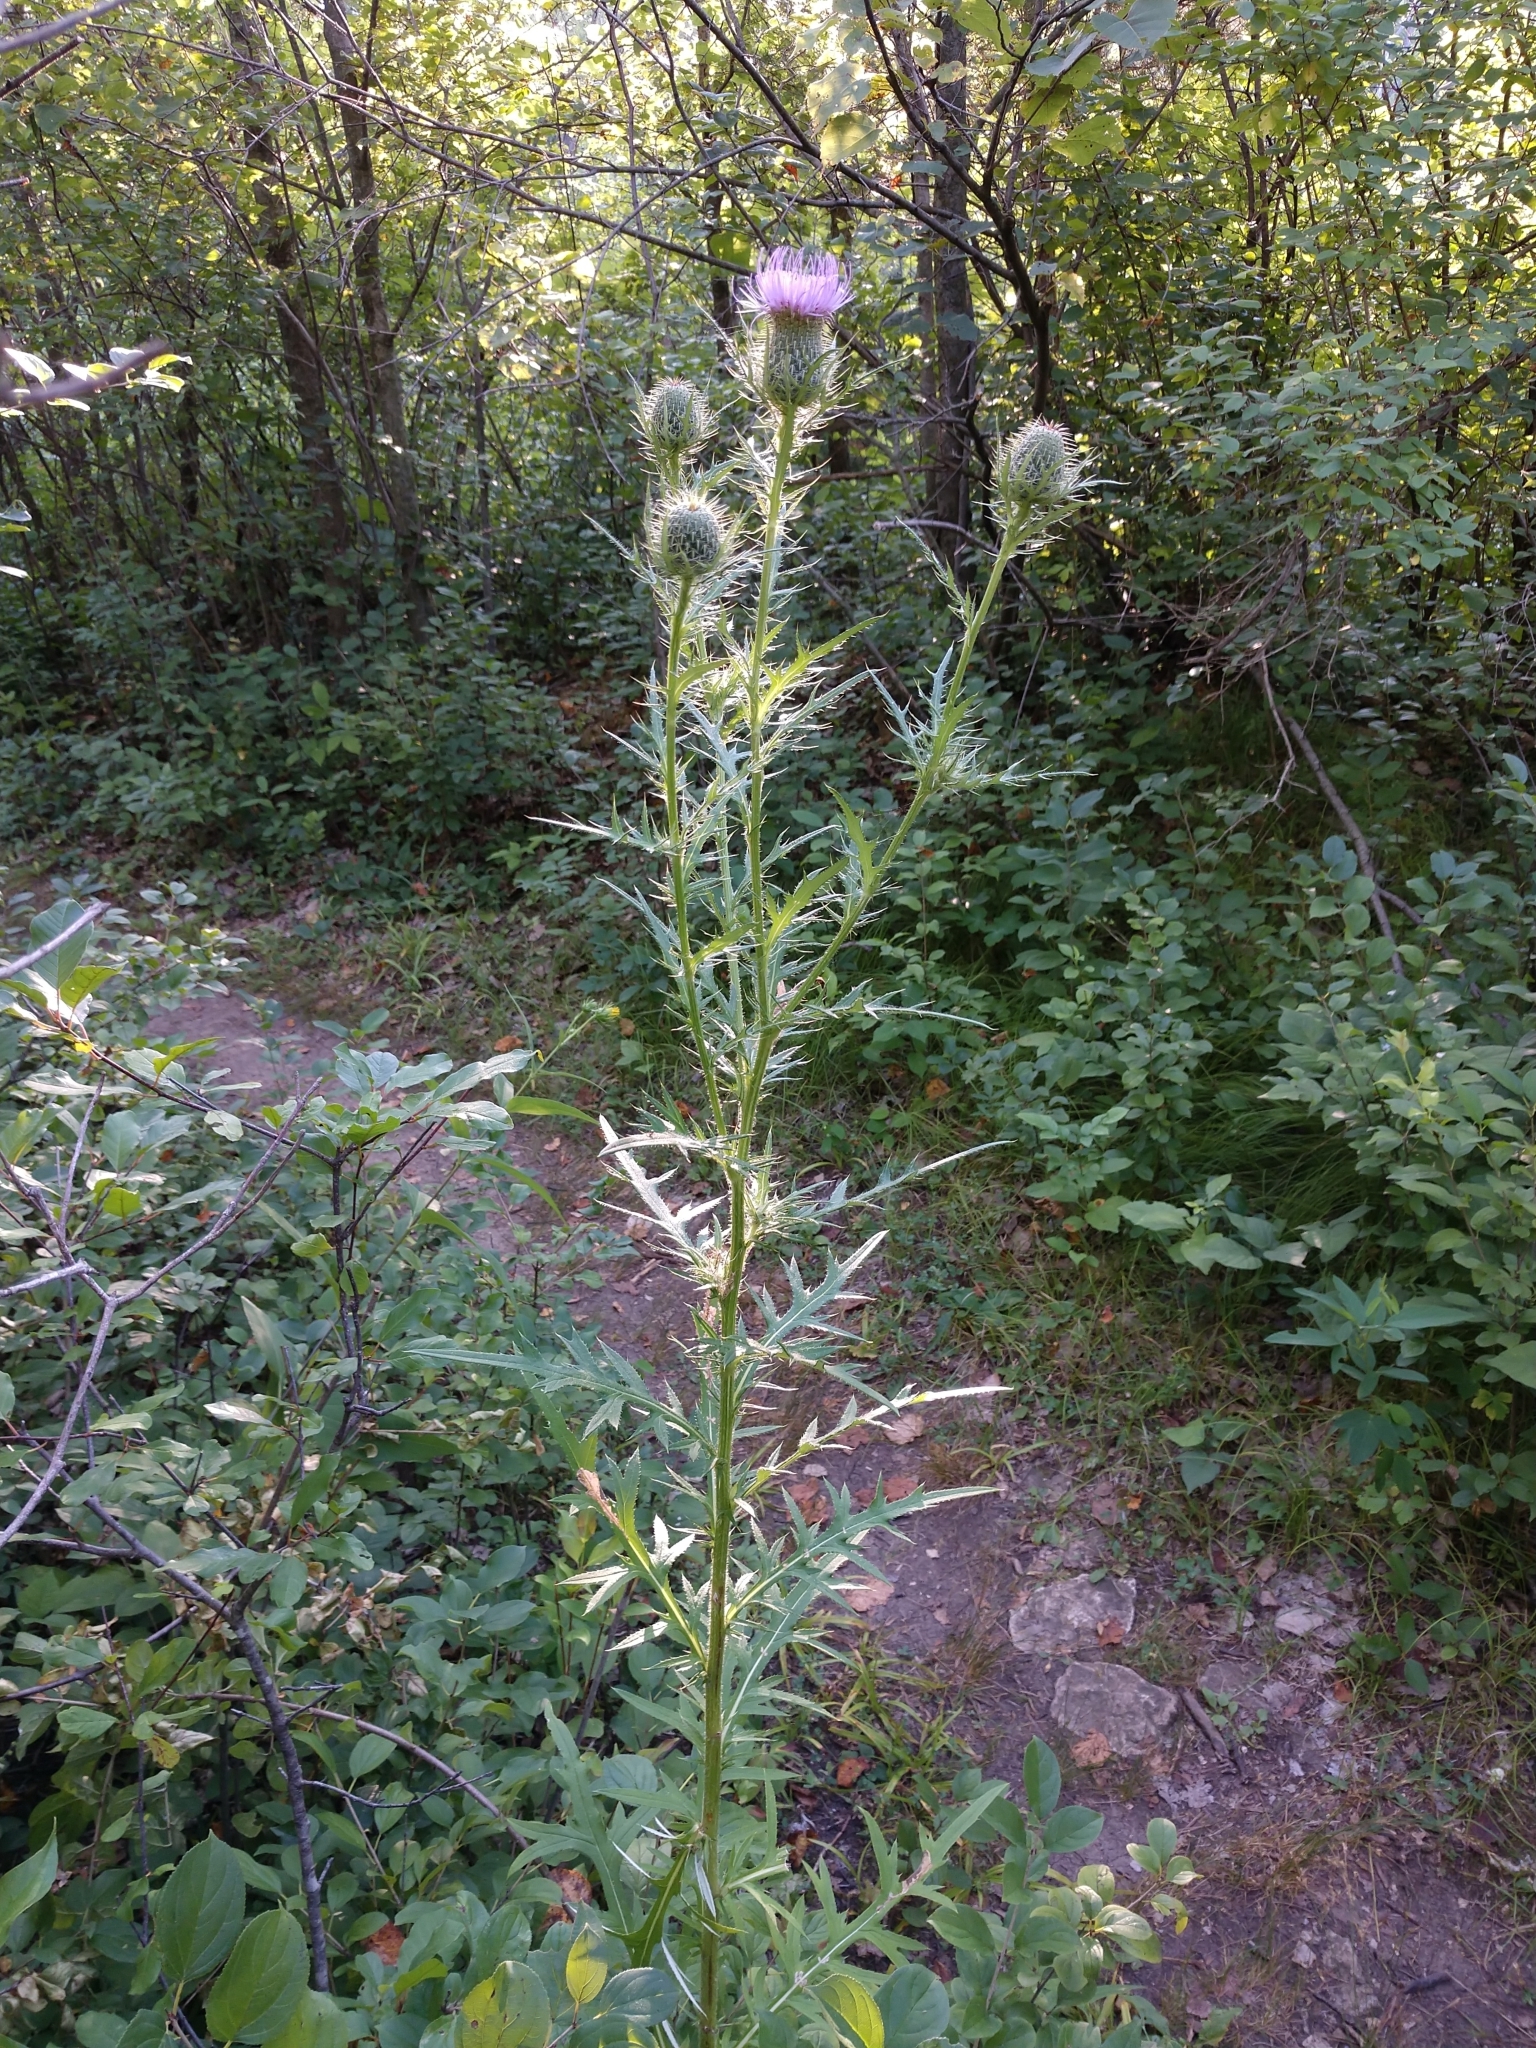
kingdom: Plantae
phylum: Tracheophyta
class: Magnoliopsida
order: Asterales
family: Asteraceae
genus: Cirsium
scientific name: Cirsium discolor
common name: Field thistle
